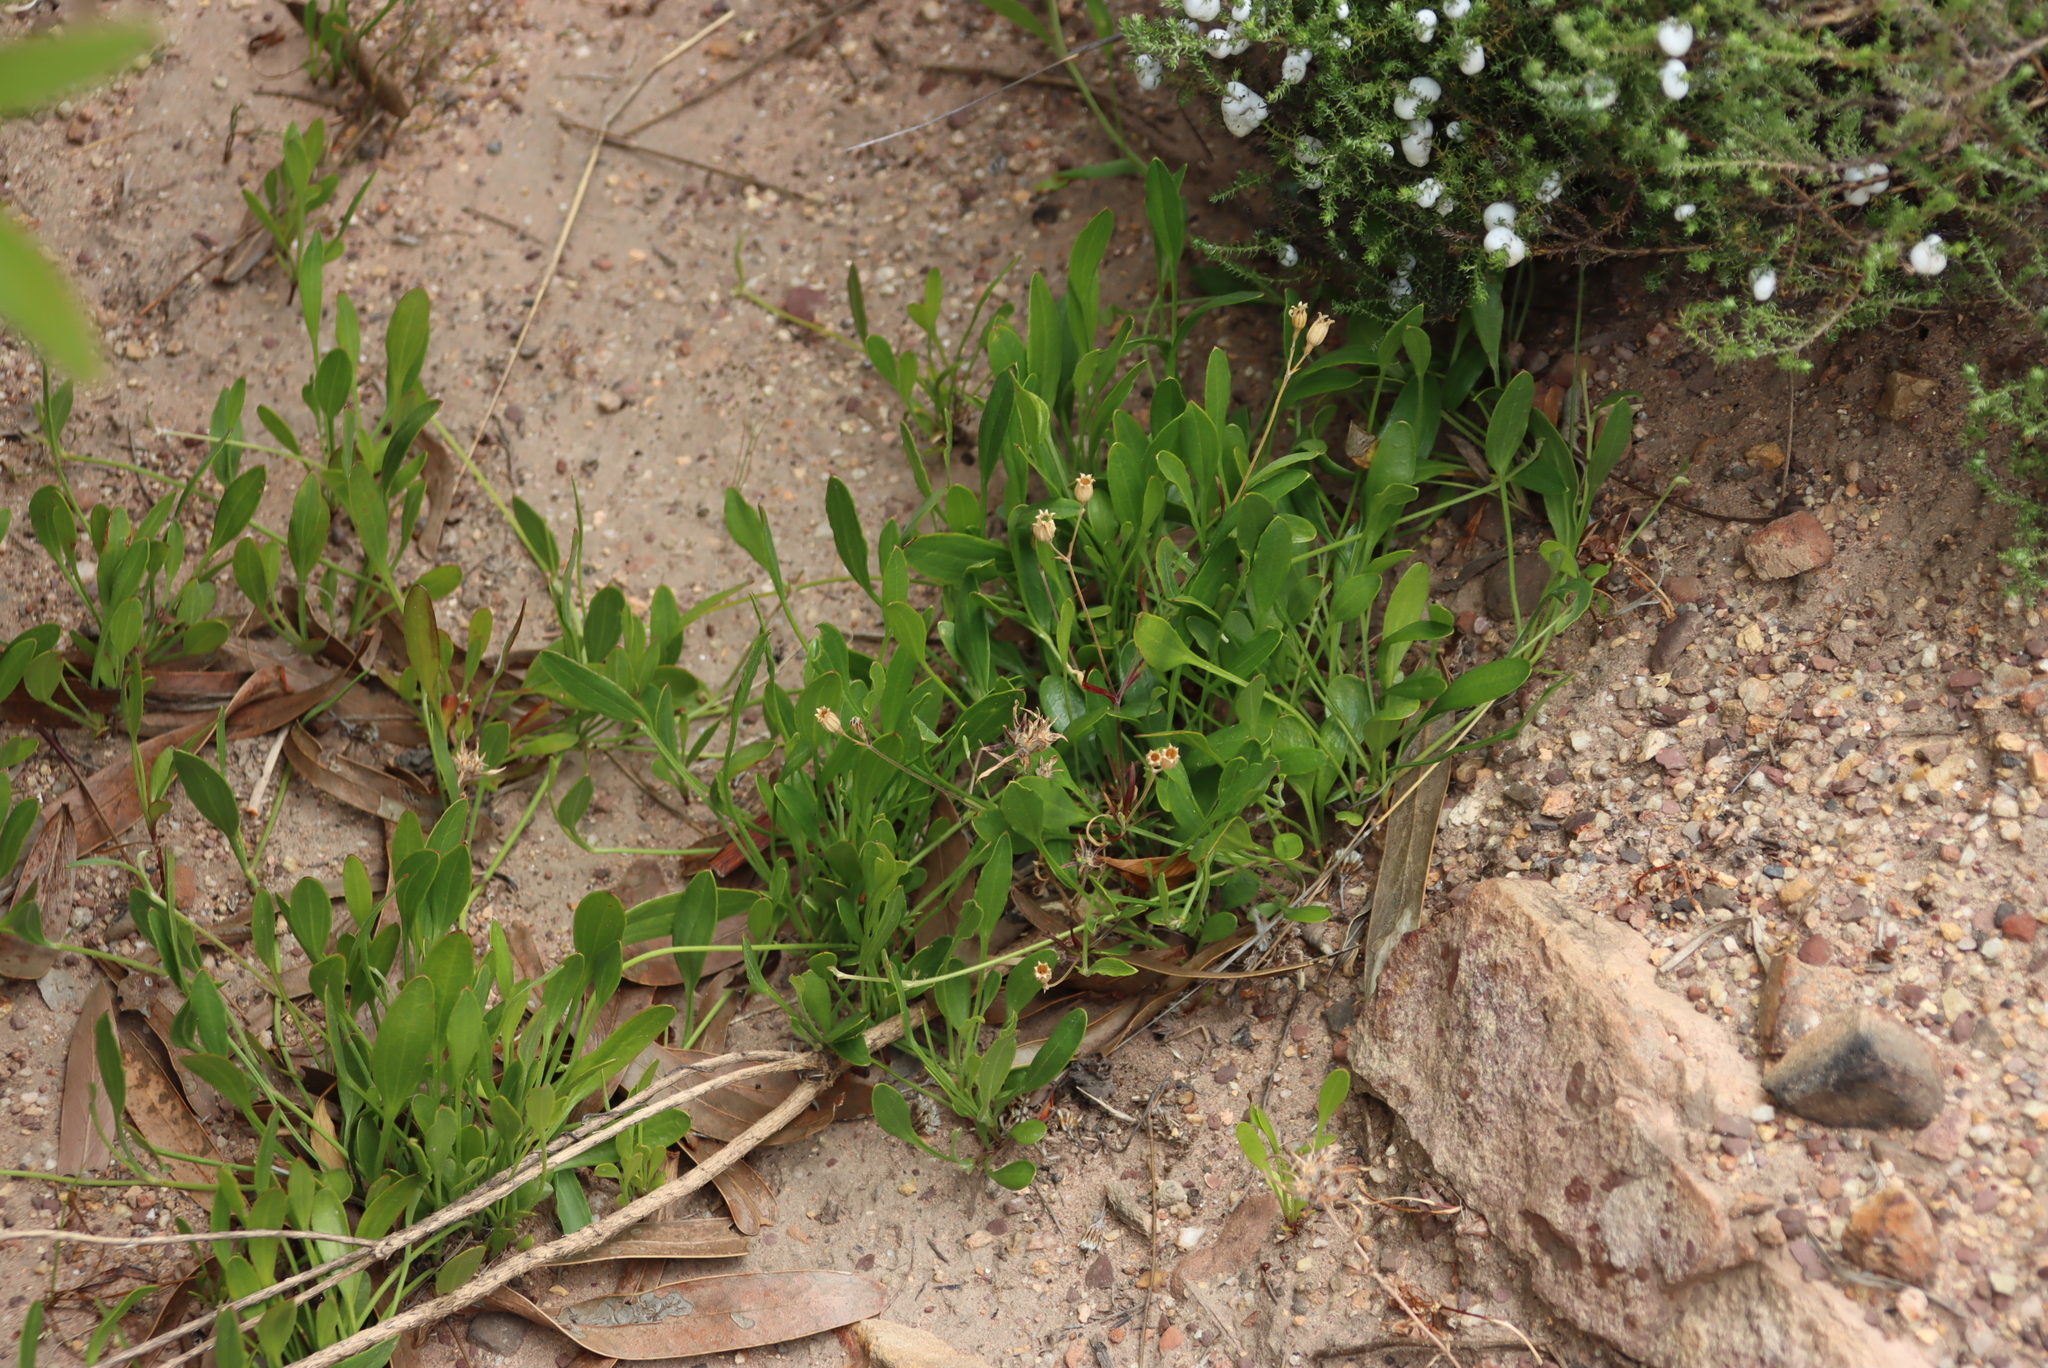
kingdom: Plantae
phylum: Tracheophyta
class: Magnoliopsida
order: Apiales
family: Apiaceae
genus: Centella
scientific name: Centella glabrata
